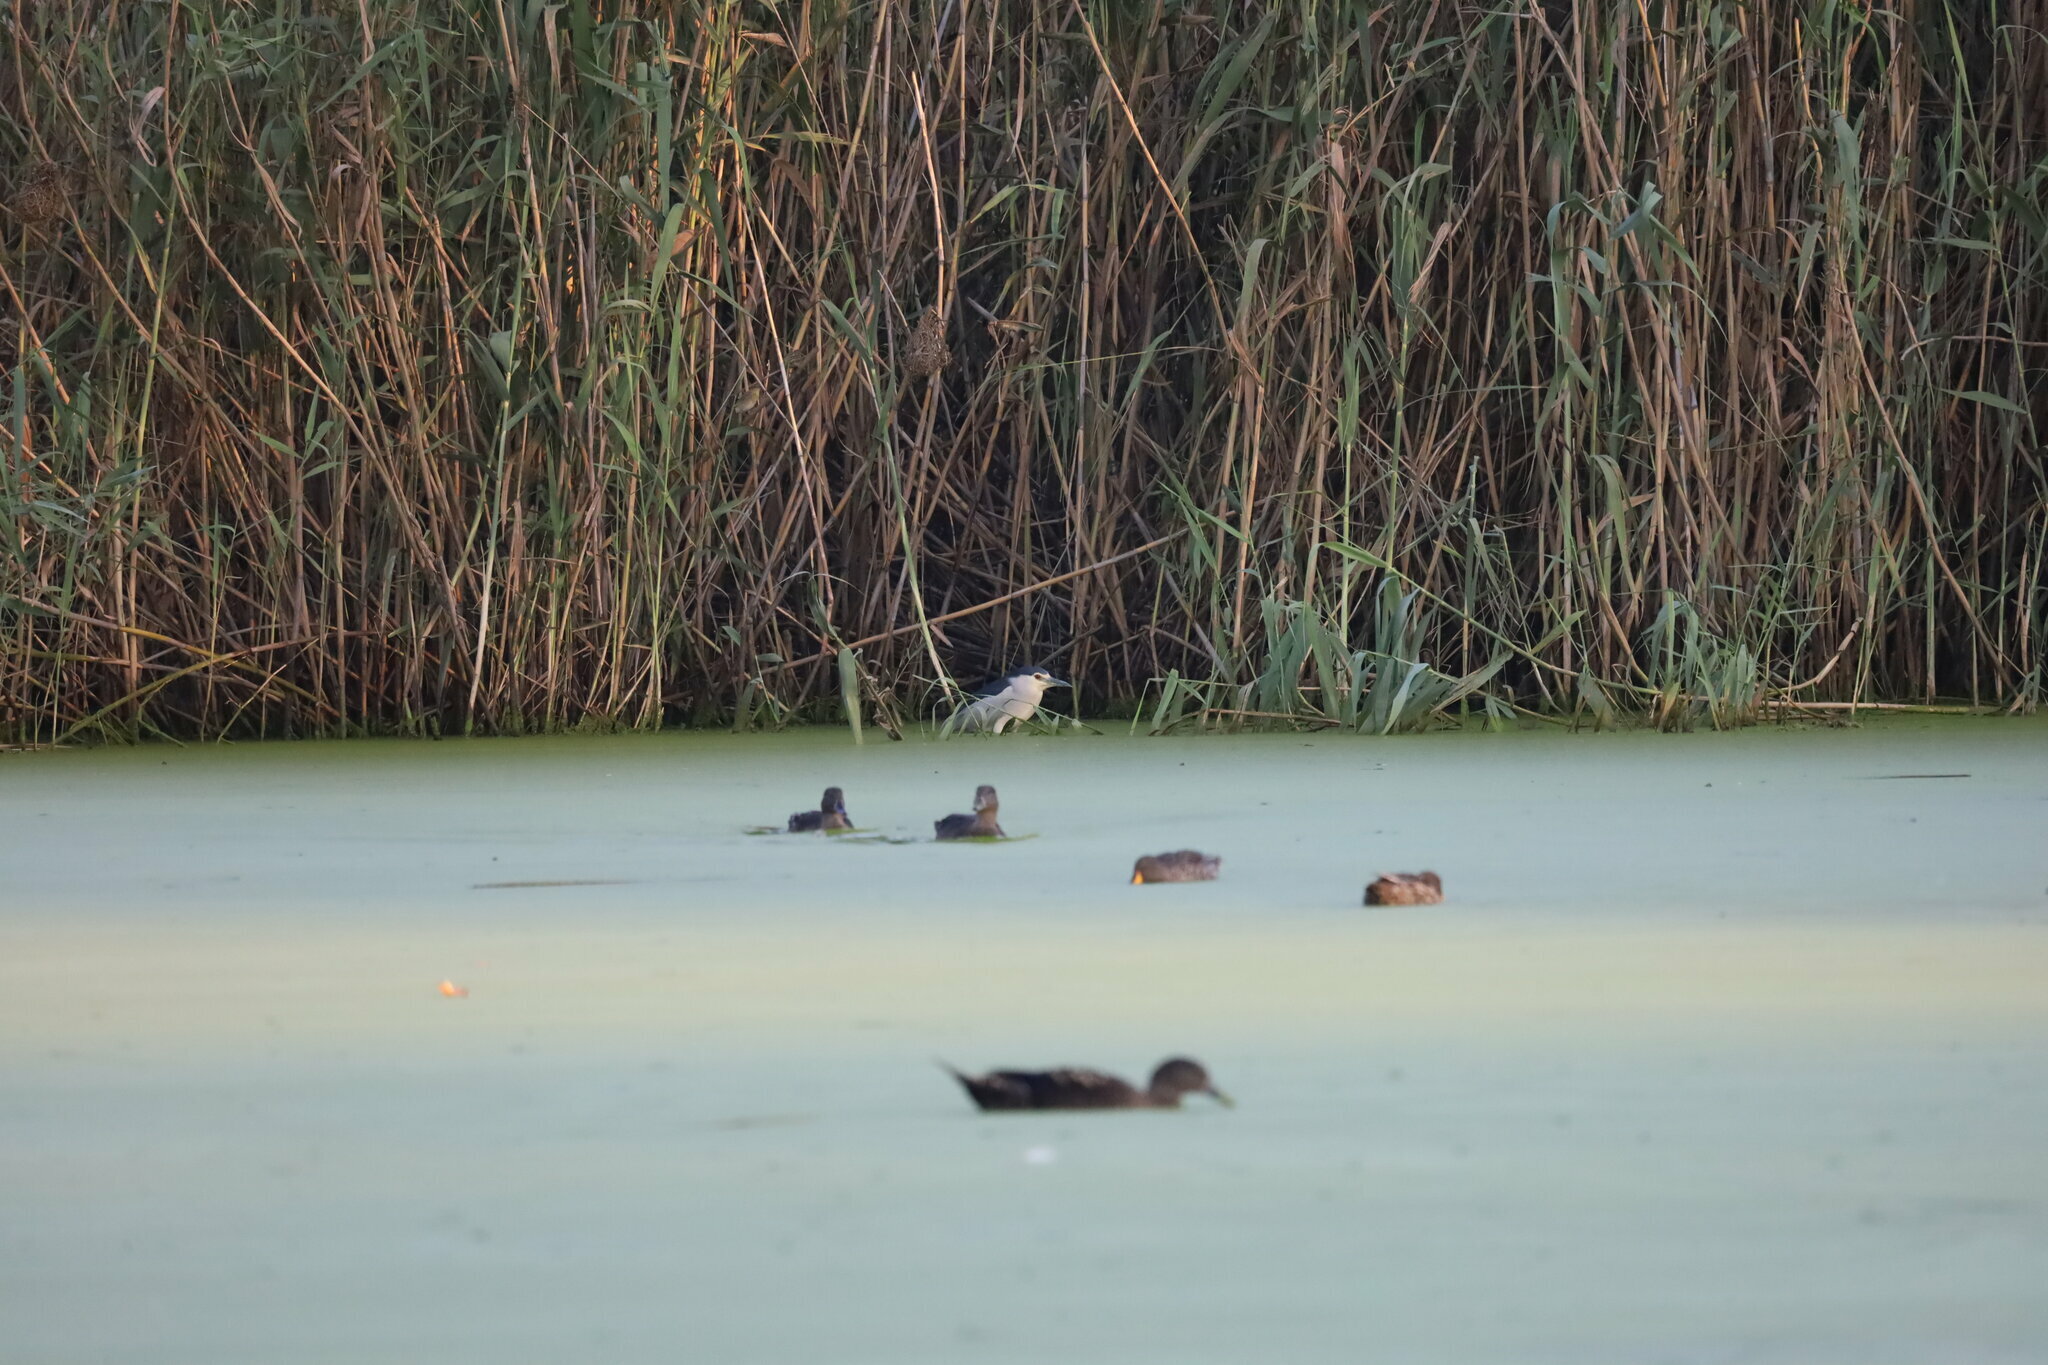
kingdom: Animalia
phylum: Chordata
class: Aves
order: Pelecaniformes
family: Ardeidae
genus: Nycticorax
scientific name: Nycticorax nycticorax
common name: Black-crowned night heron
